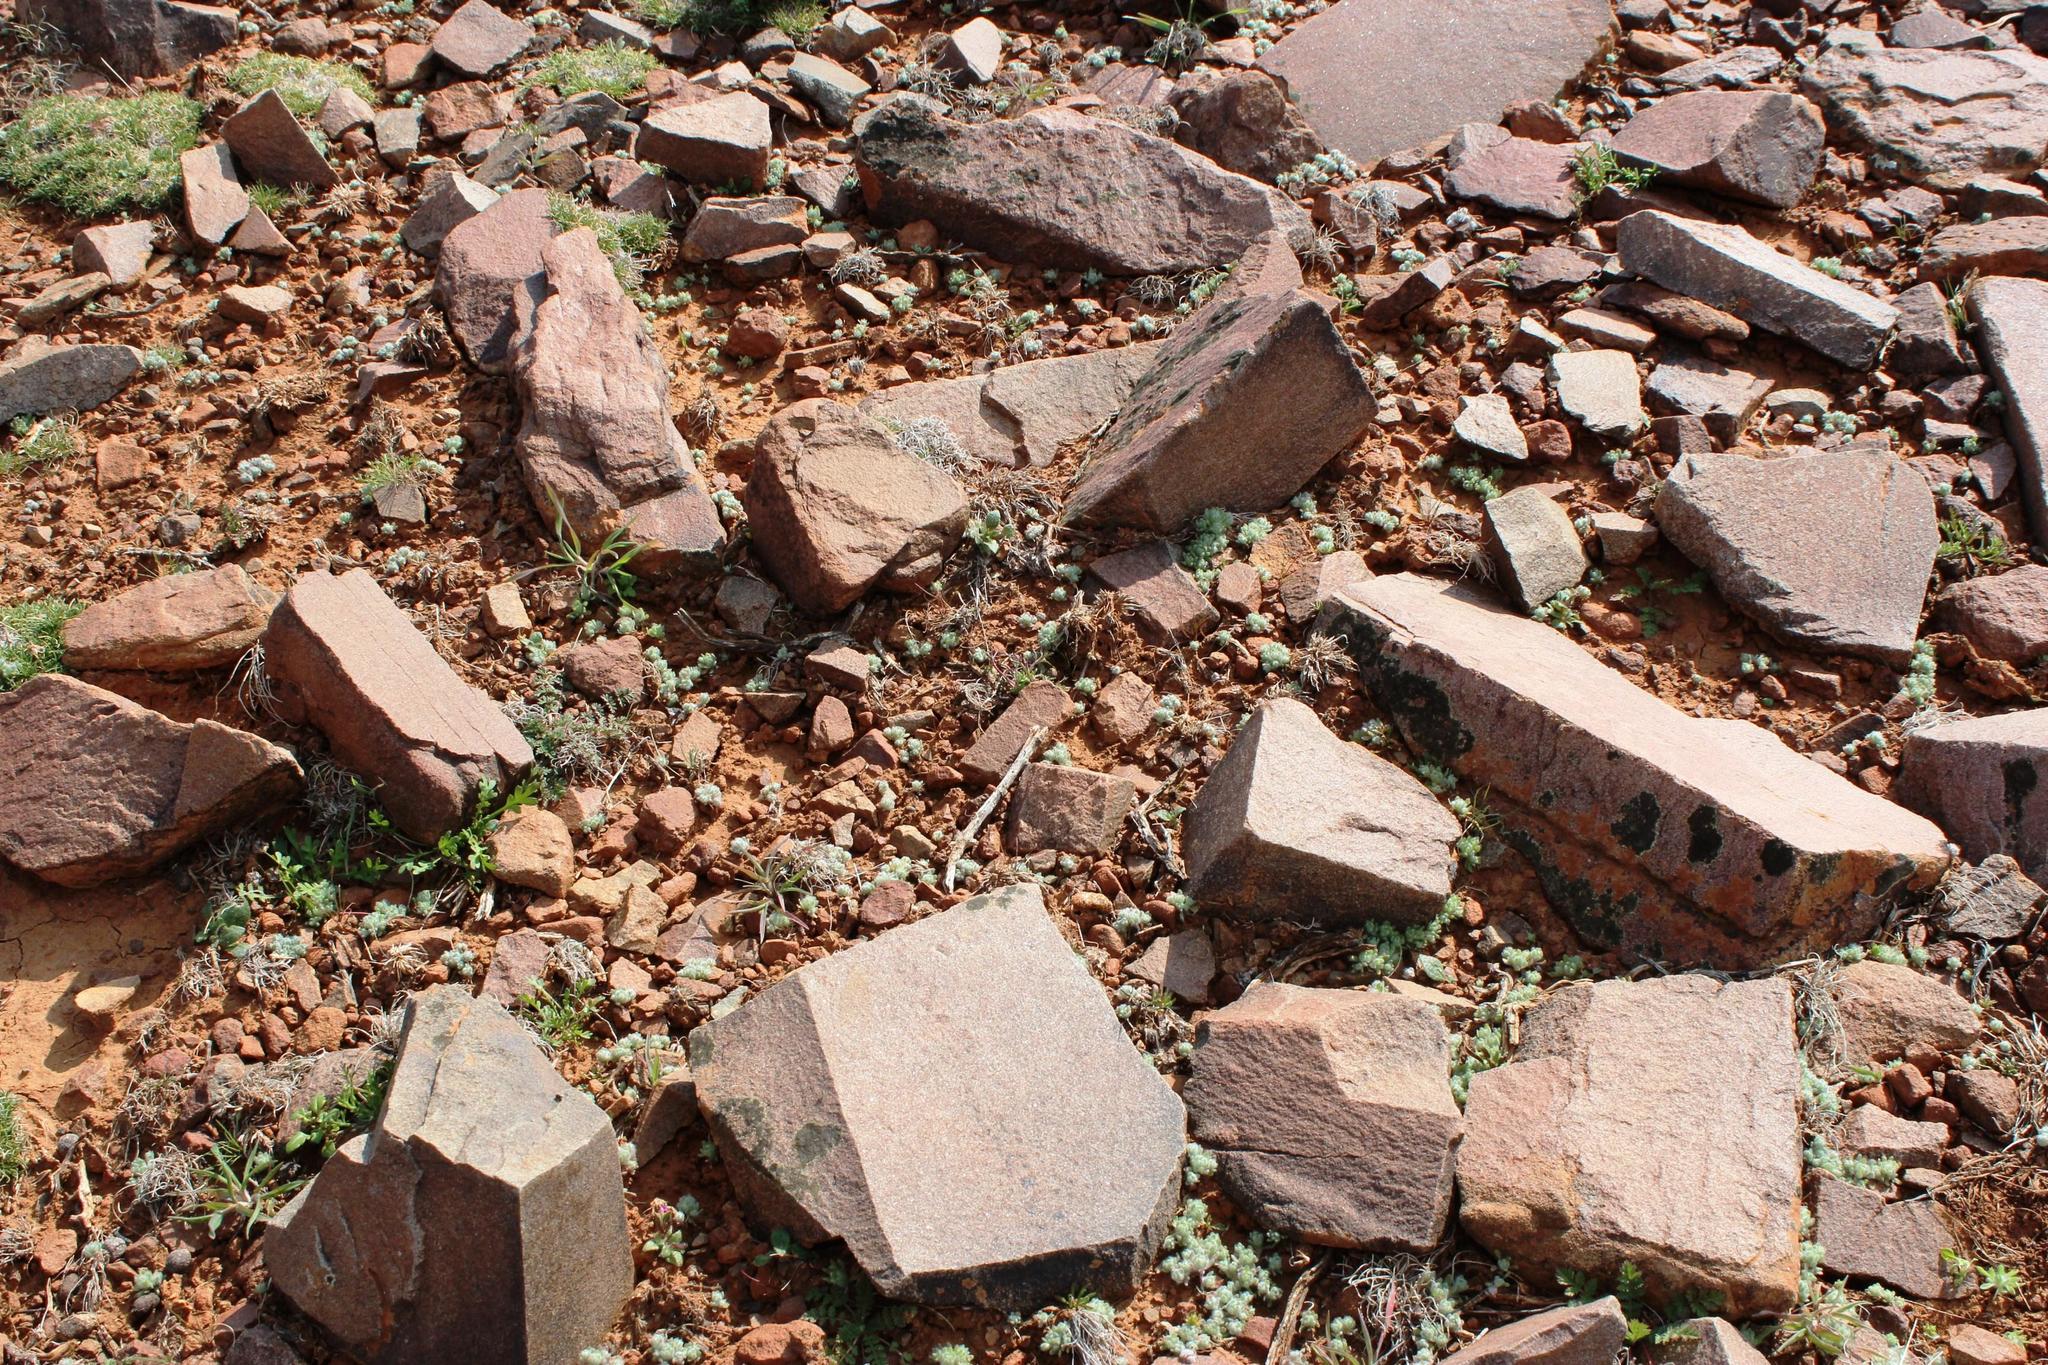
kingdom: Plantae
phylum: Tracheophyta
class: Magnoliopsida
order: Asterales
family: Asteraceae
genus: Galeomma
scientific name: Galeomma oculus-cati
